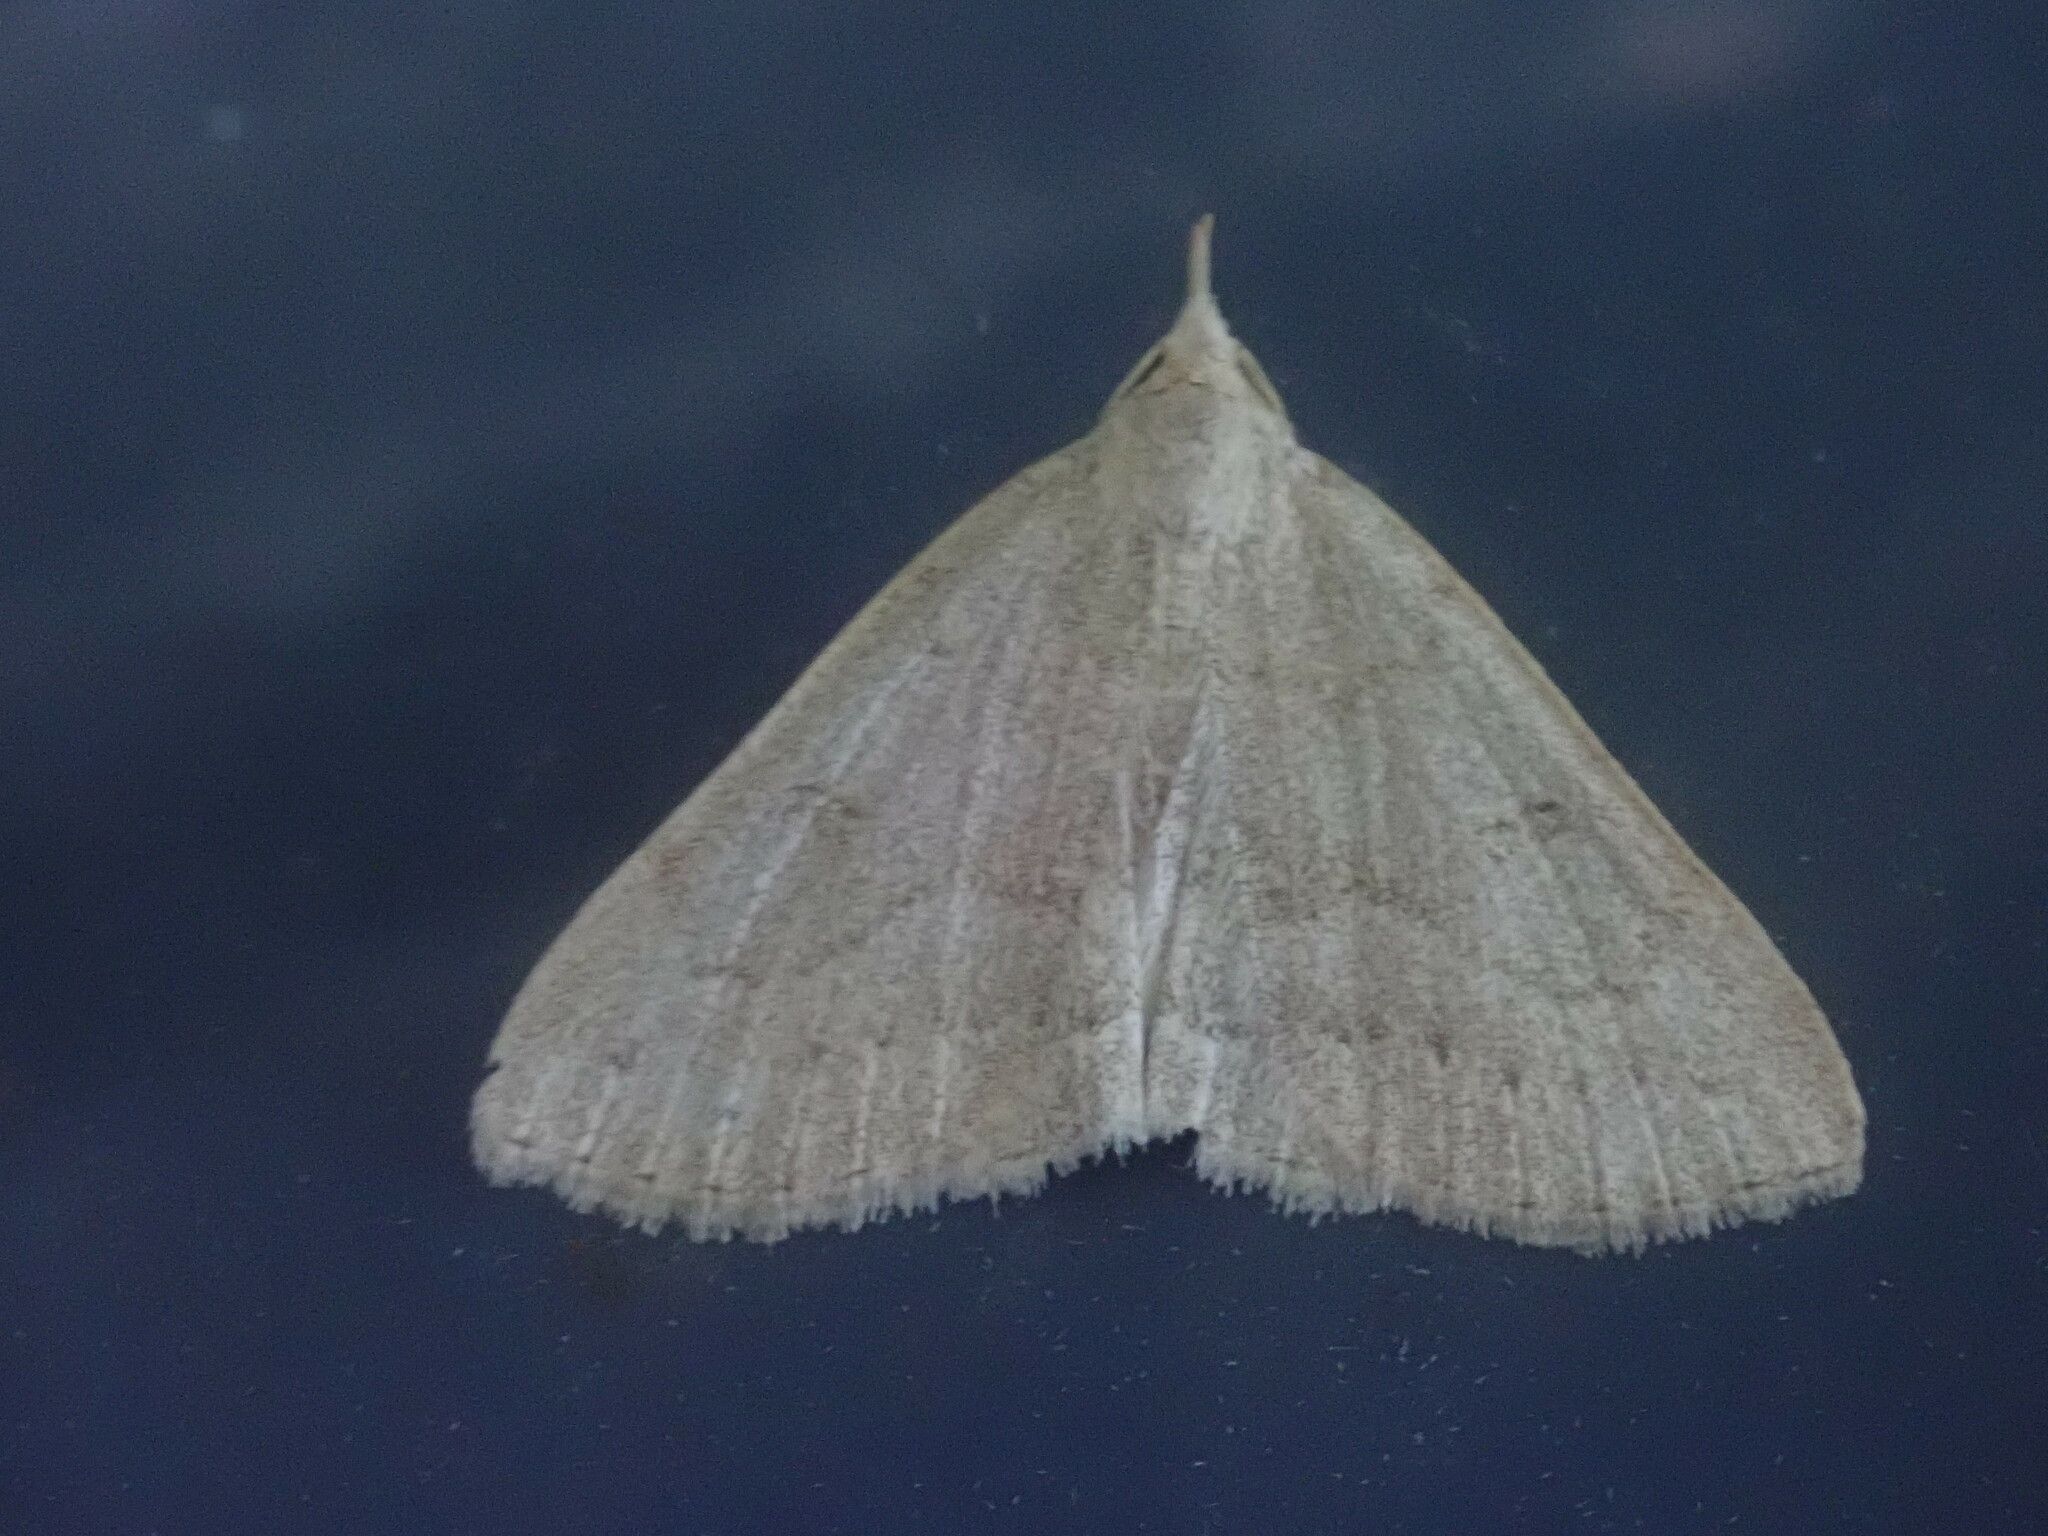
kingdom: Animalia
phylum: Arthropoda
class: Insecta
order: Lepidoptera
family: Erebidae
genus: Macrochilo
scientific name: Macrochilo morbidalis
